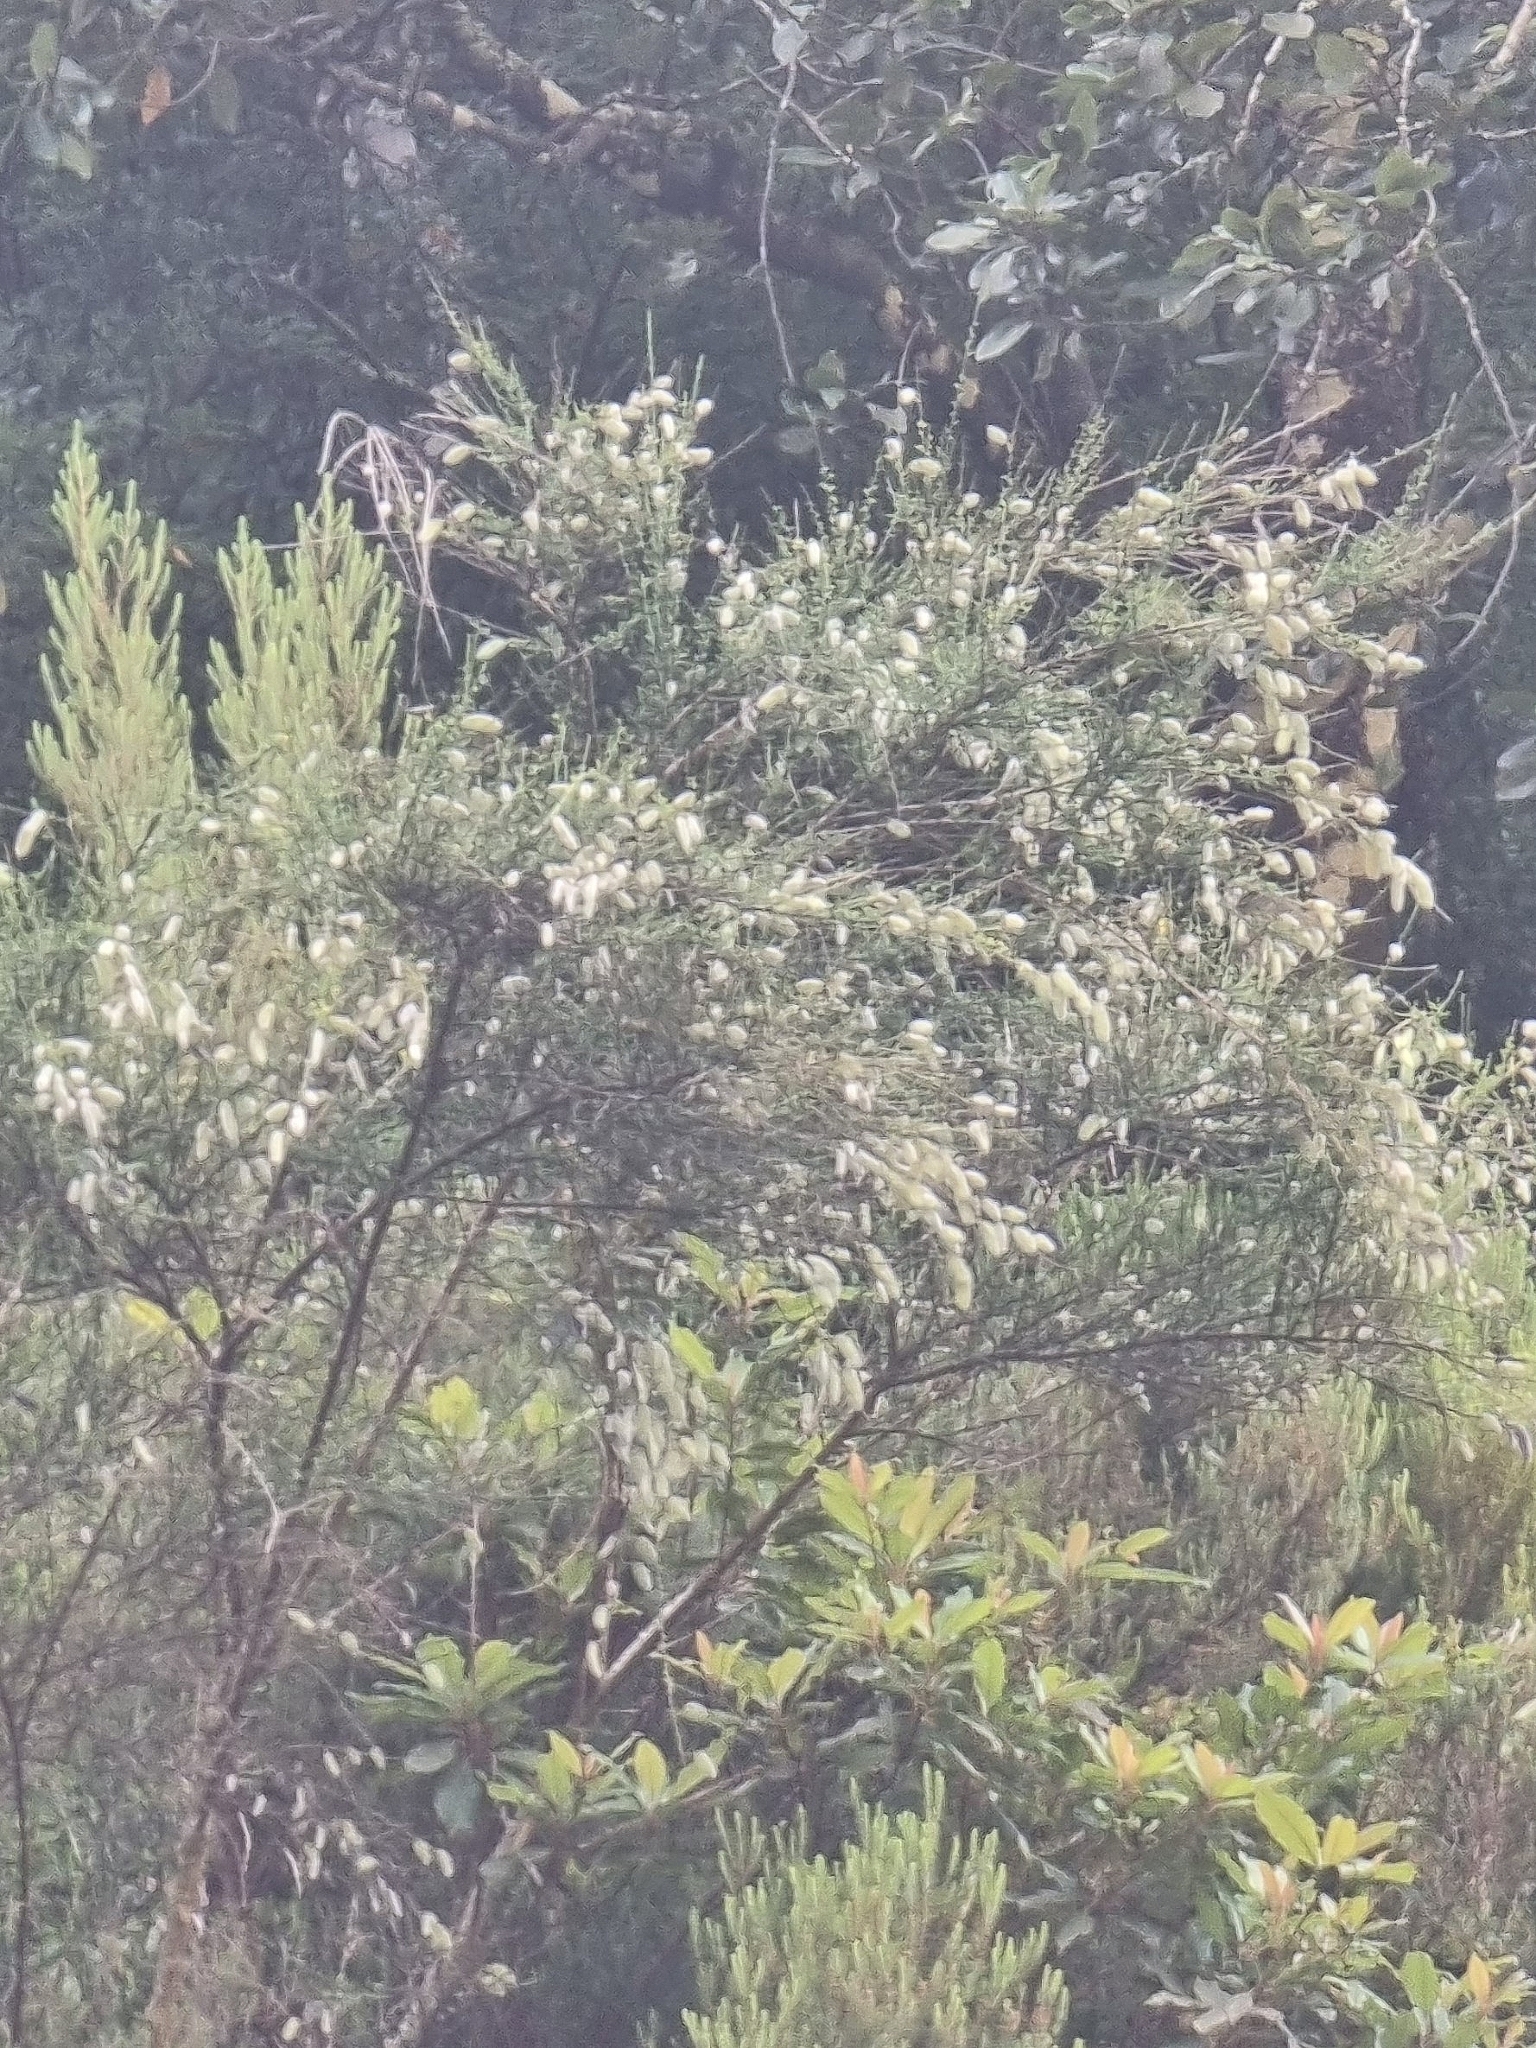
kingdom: Plantae
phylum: Tracheophyta
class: Magnoliopsida
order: Fabales
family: Fabaceae
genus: Cytisus
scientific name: Cytisus striatus
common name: Hairy-fruited broom
